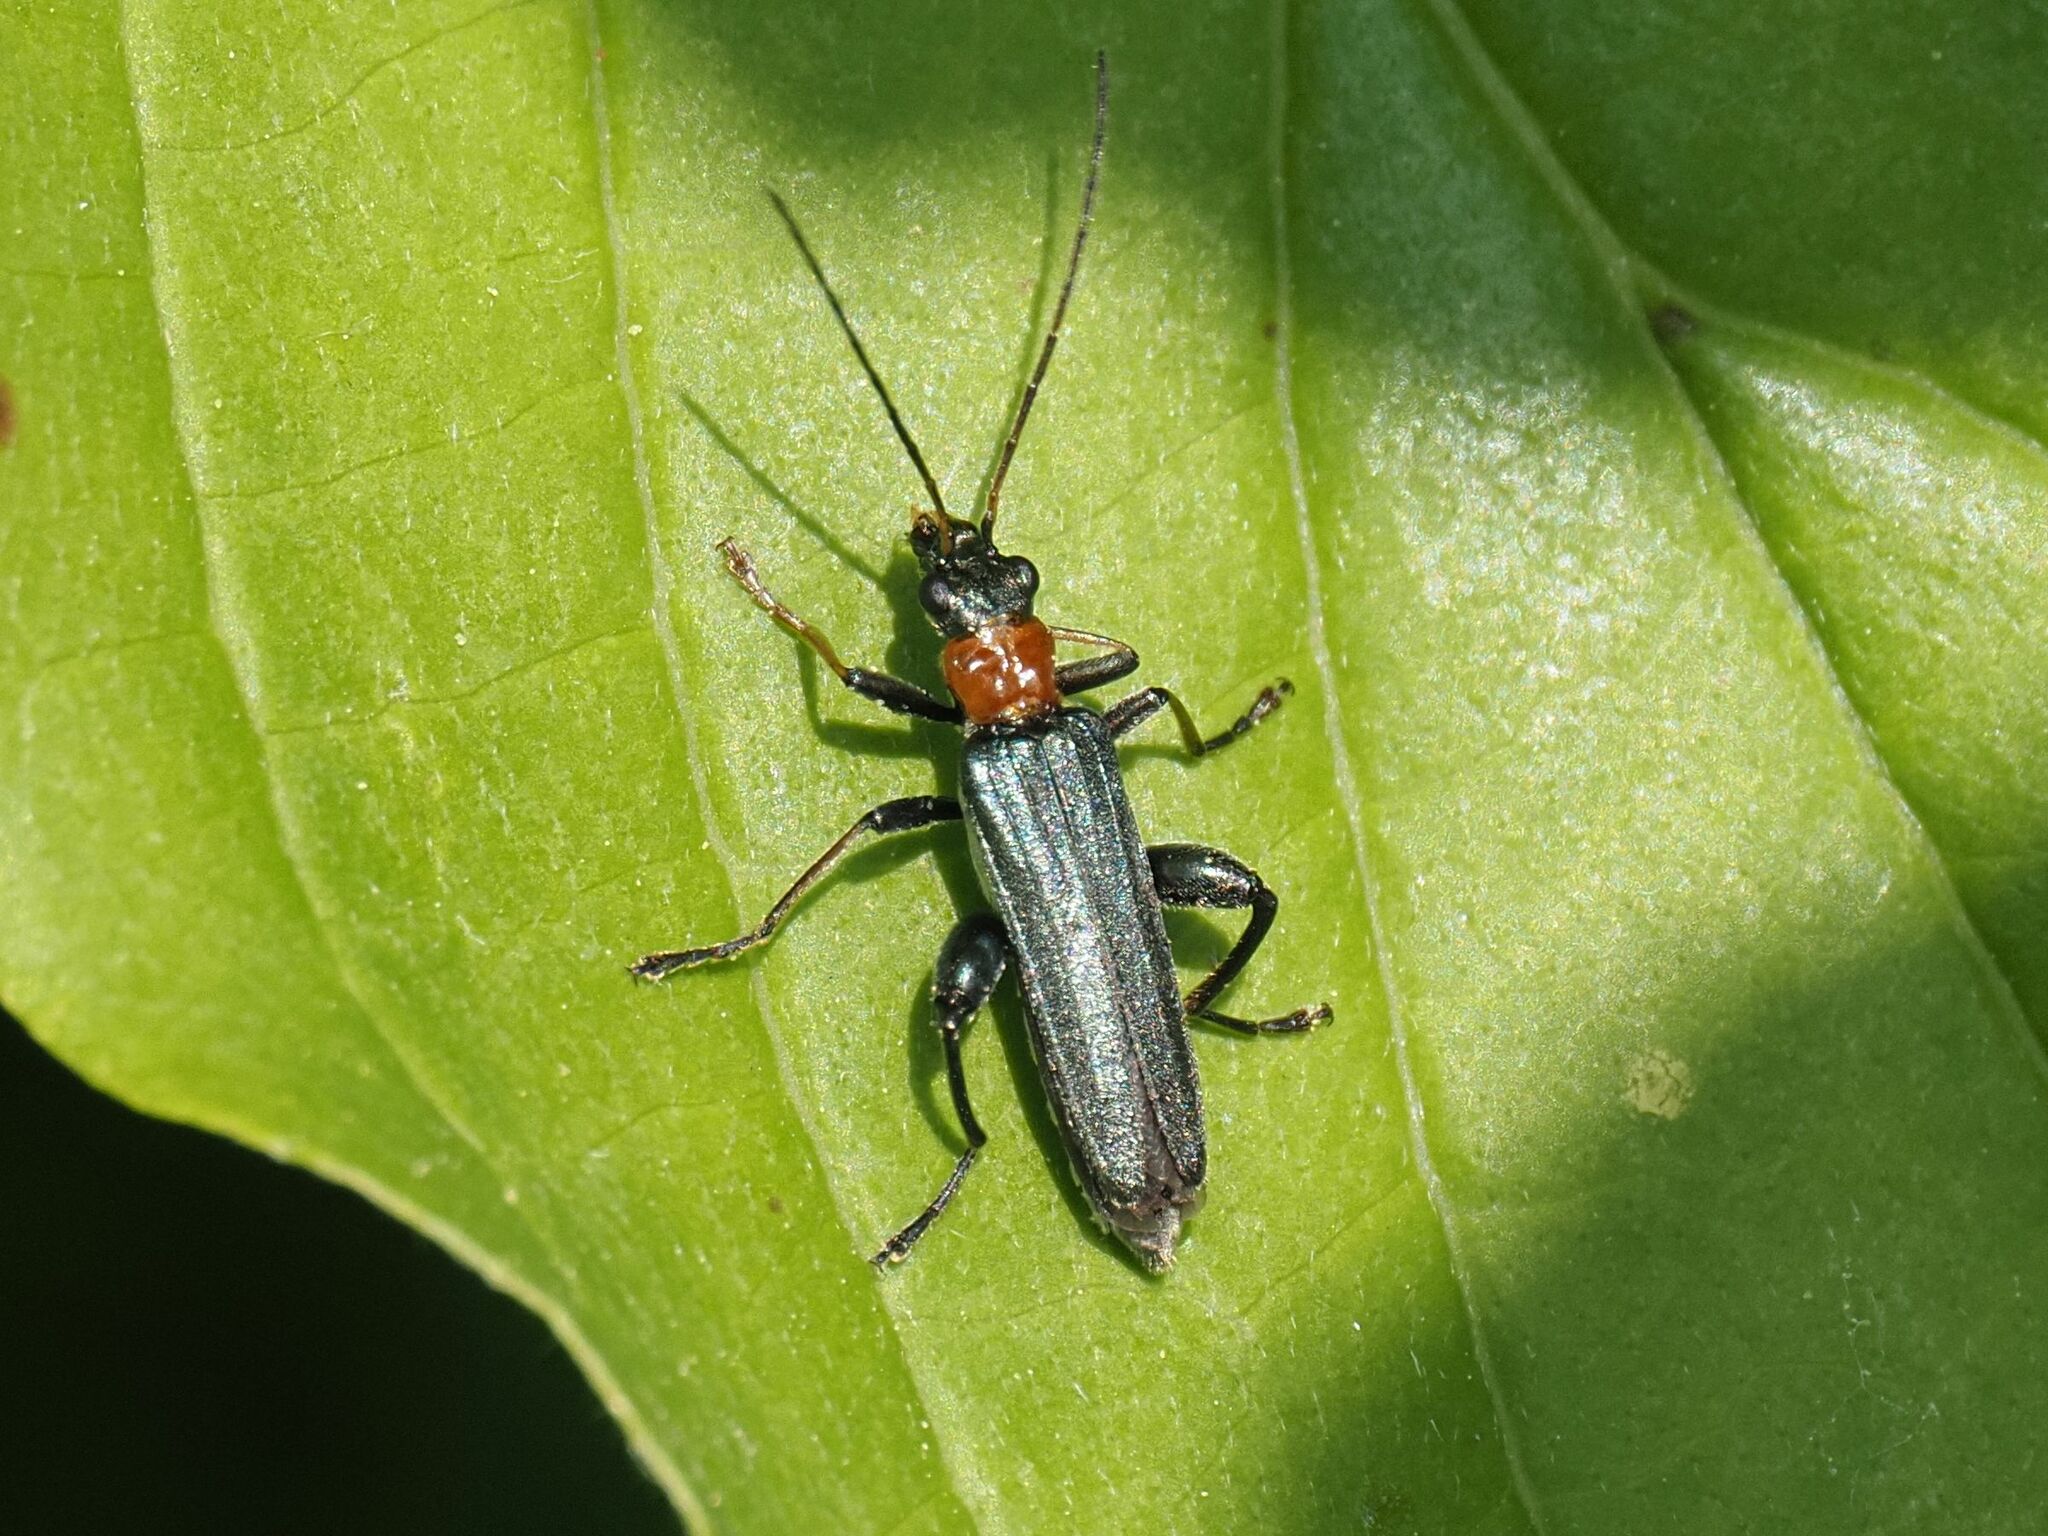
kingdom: Animalia
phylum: Arthropoda
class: Insecta
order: Coleoptera
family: Oedemeridae
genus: Oedemera
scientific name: Oedemera croceicollis
